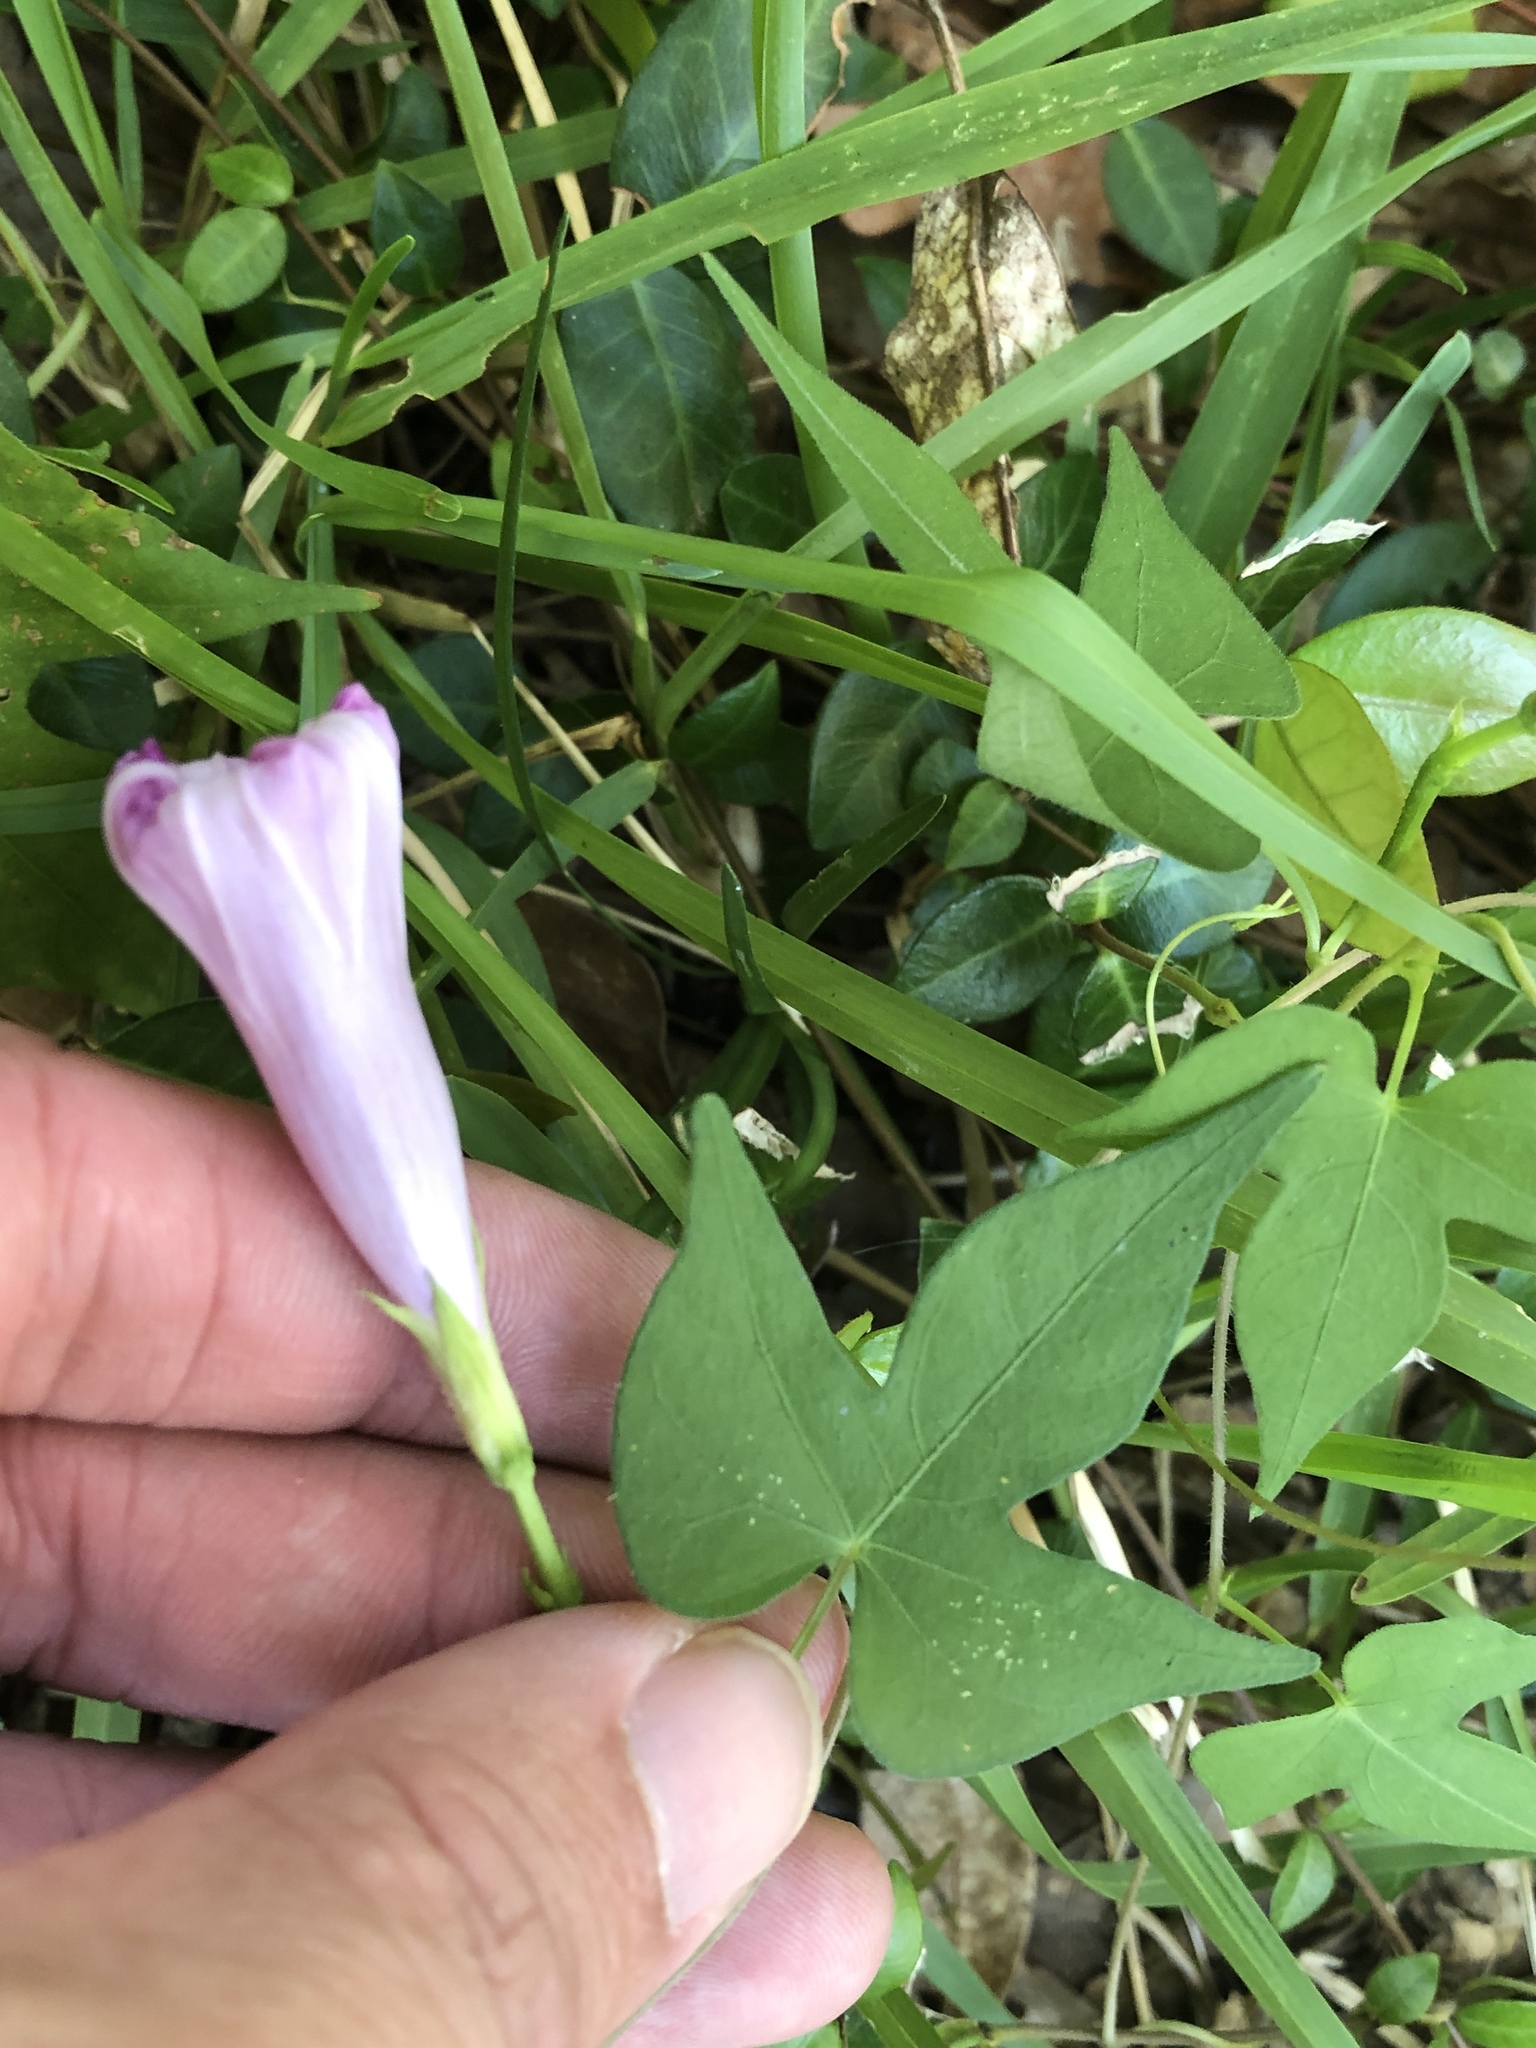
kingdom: Plantae
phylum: Tracheophyta
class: Magnoliopsida
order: Solanales
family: Convolvulaceae
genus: Ipomoea
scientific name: Ipomoea cordatotriloba
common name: Cotton morning glory
